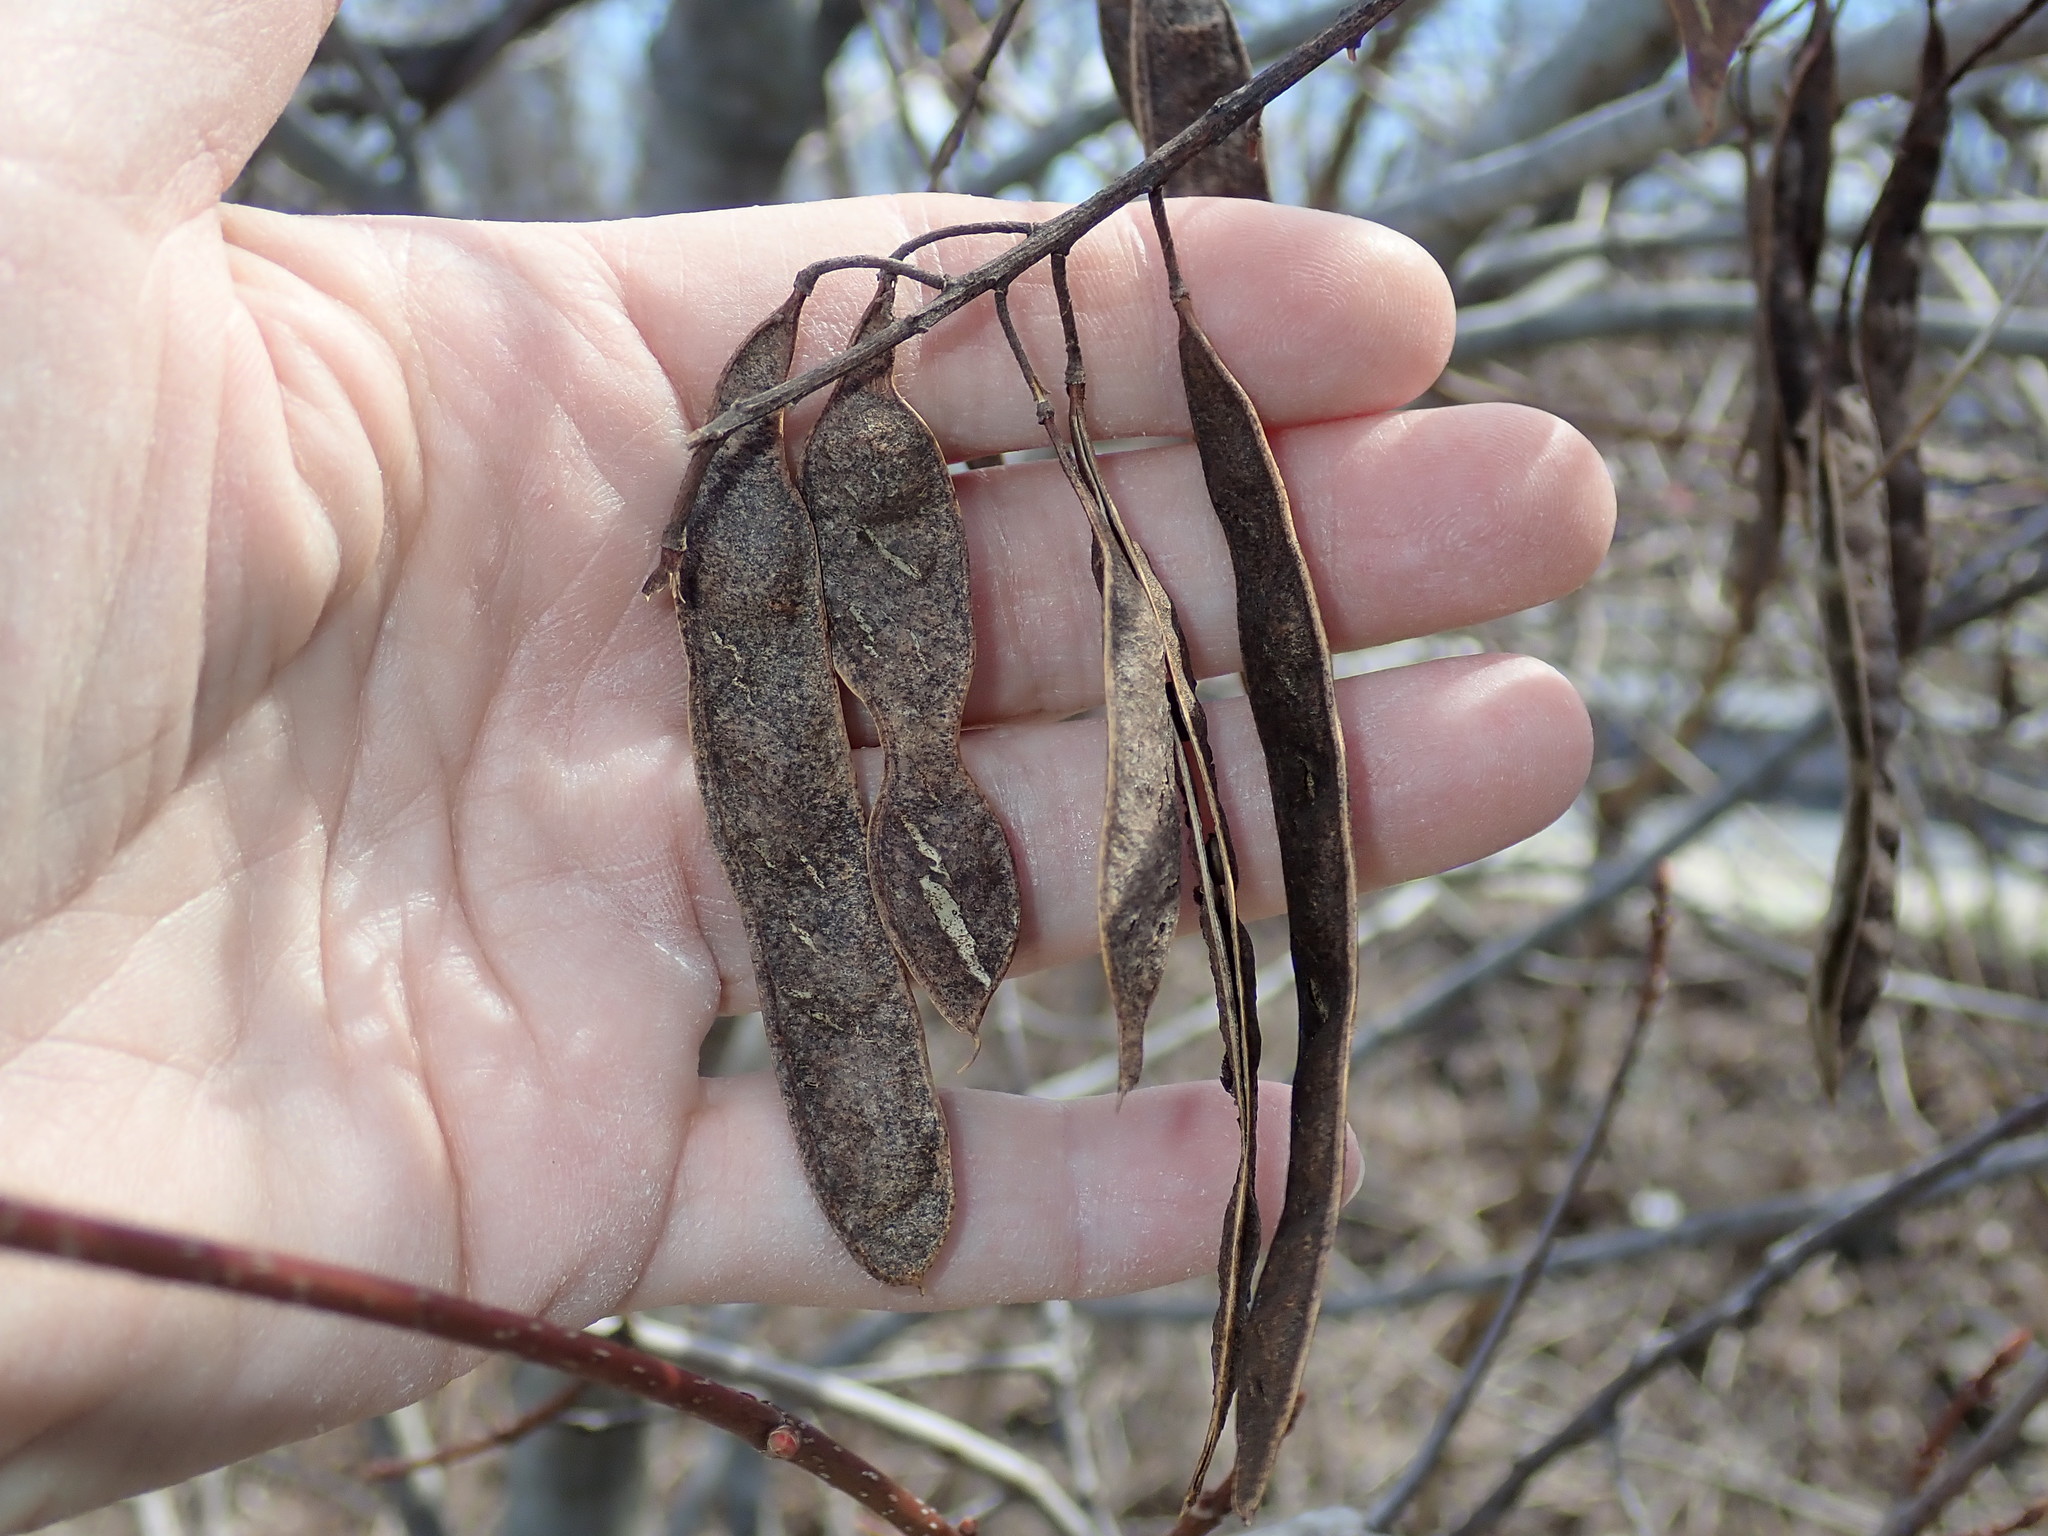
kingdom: Plantae
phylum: Tracheophyta
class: Magnoliopsida
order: Fabales
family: Fabaceae
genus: Robinia
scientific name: Robinia pseudoacacia
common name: Black locust
